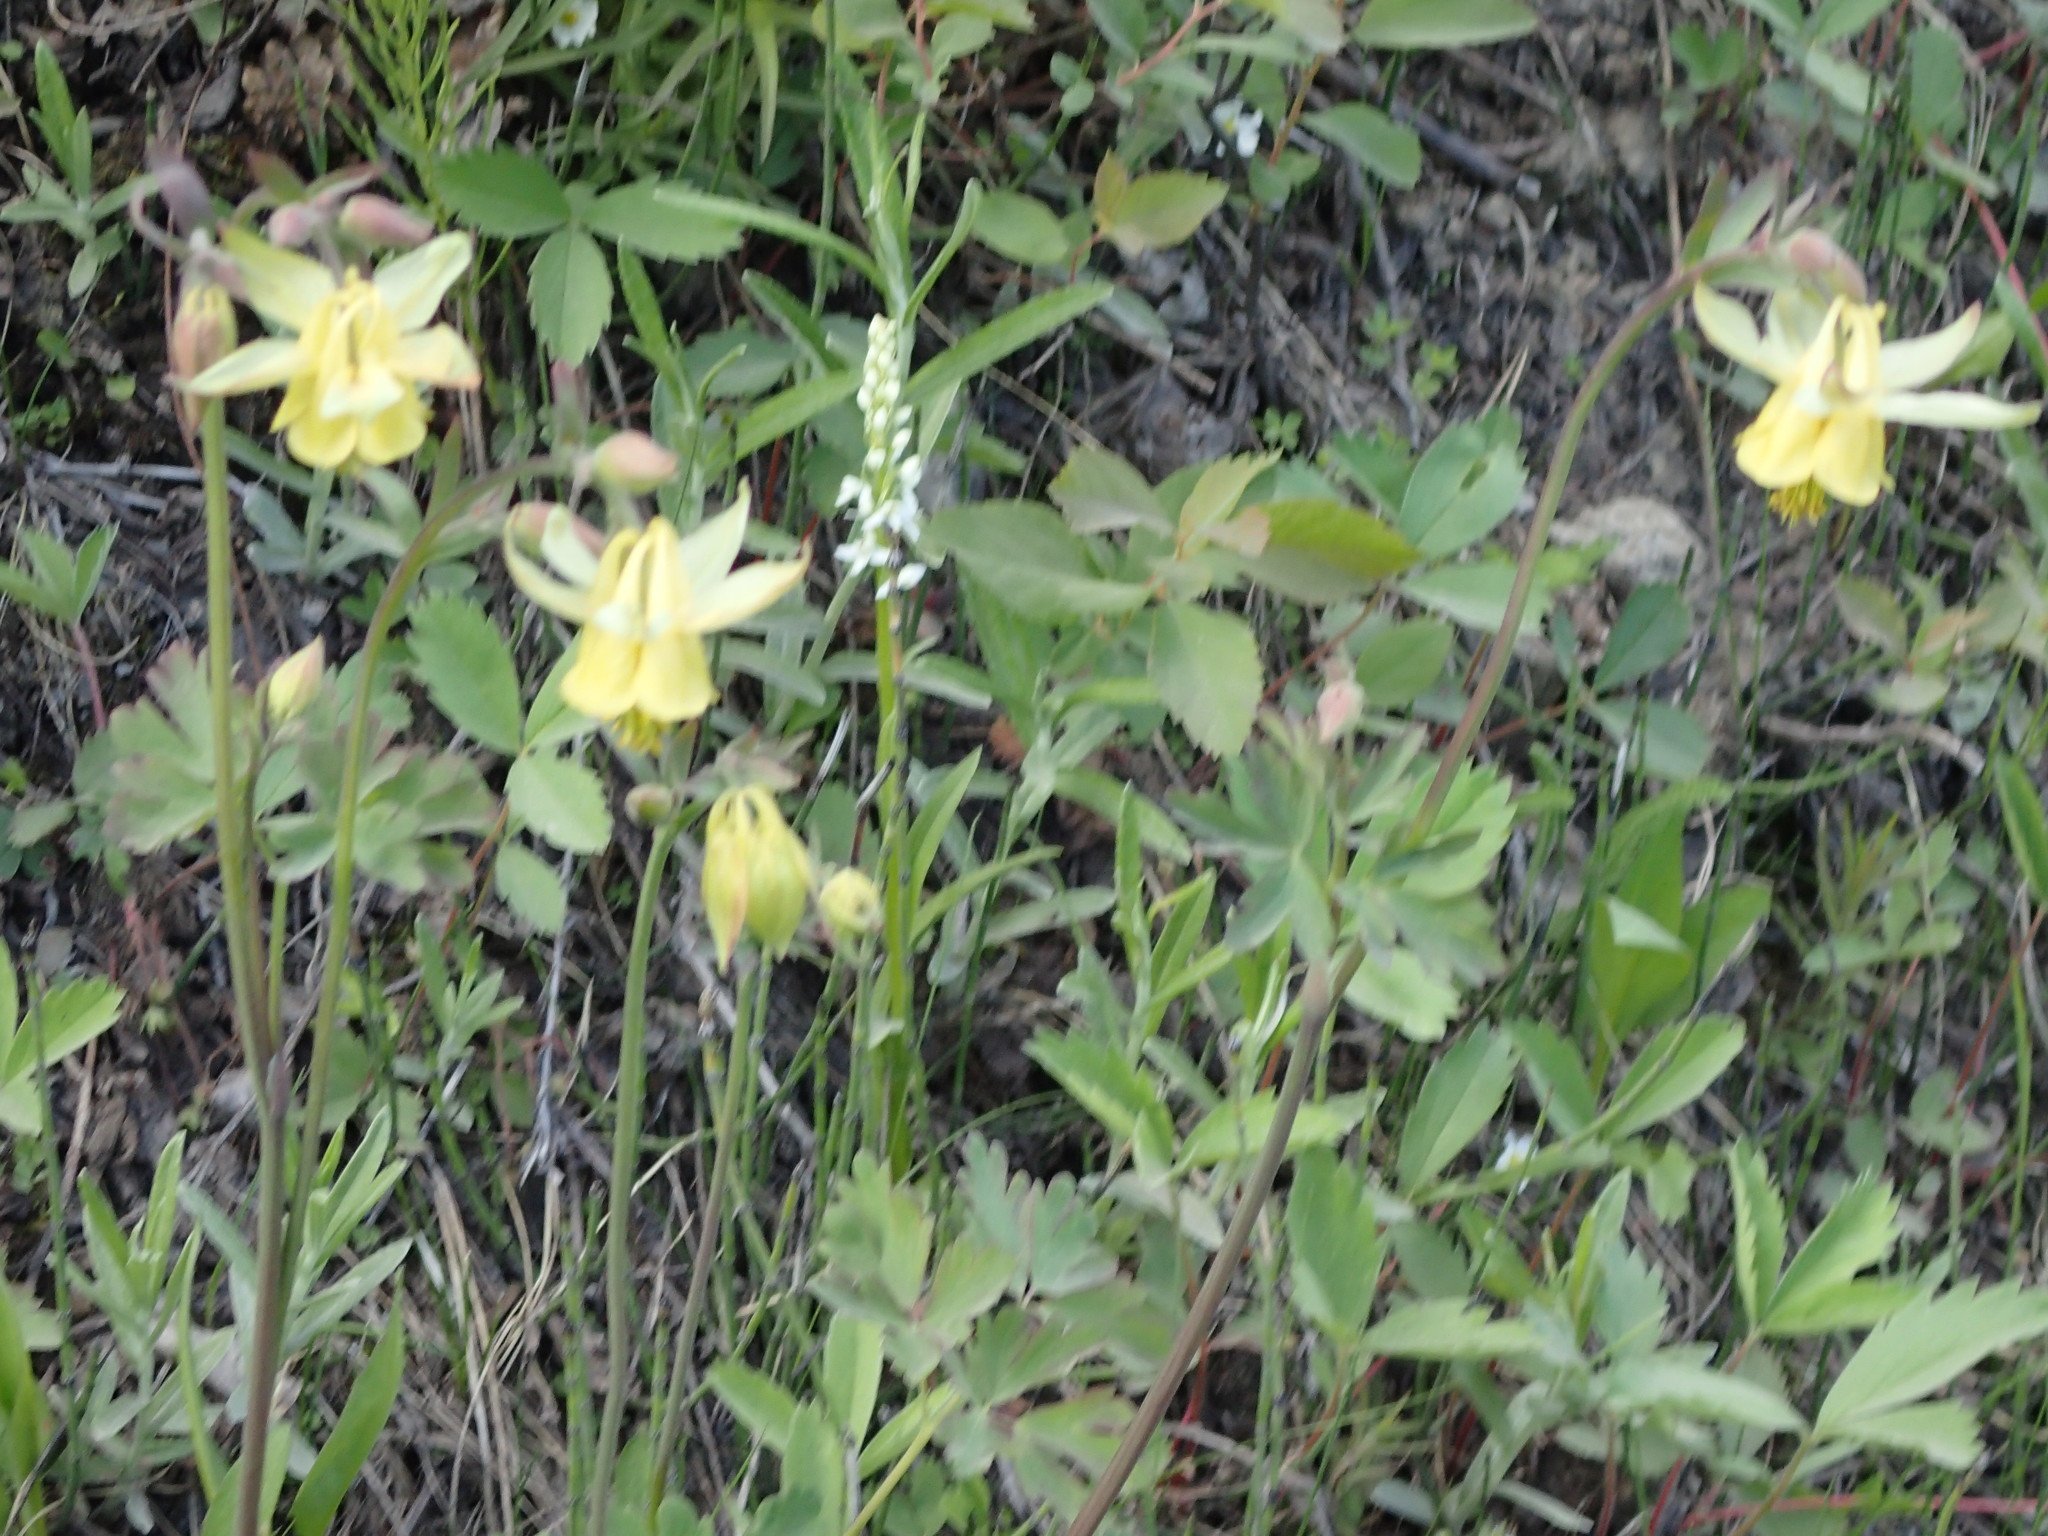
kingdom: Plantae
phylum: Tracheophyta
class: Magnoliopsida
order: Ranunculales
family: Ranunculaceae
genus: Aquilegia
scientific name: Aquilegia flavescens
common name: Yellow columbine
